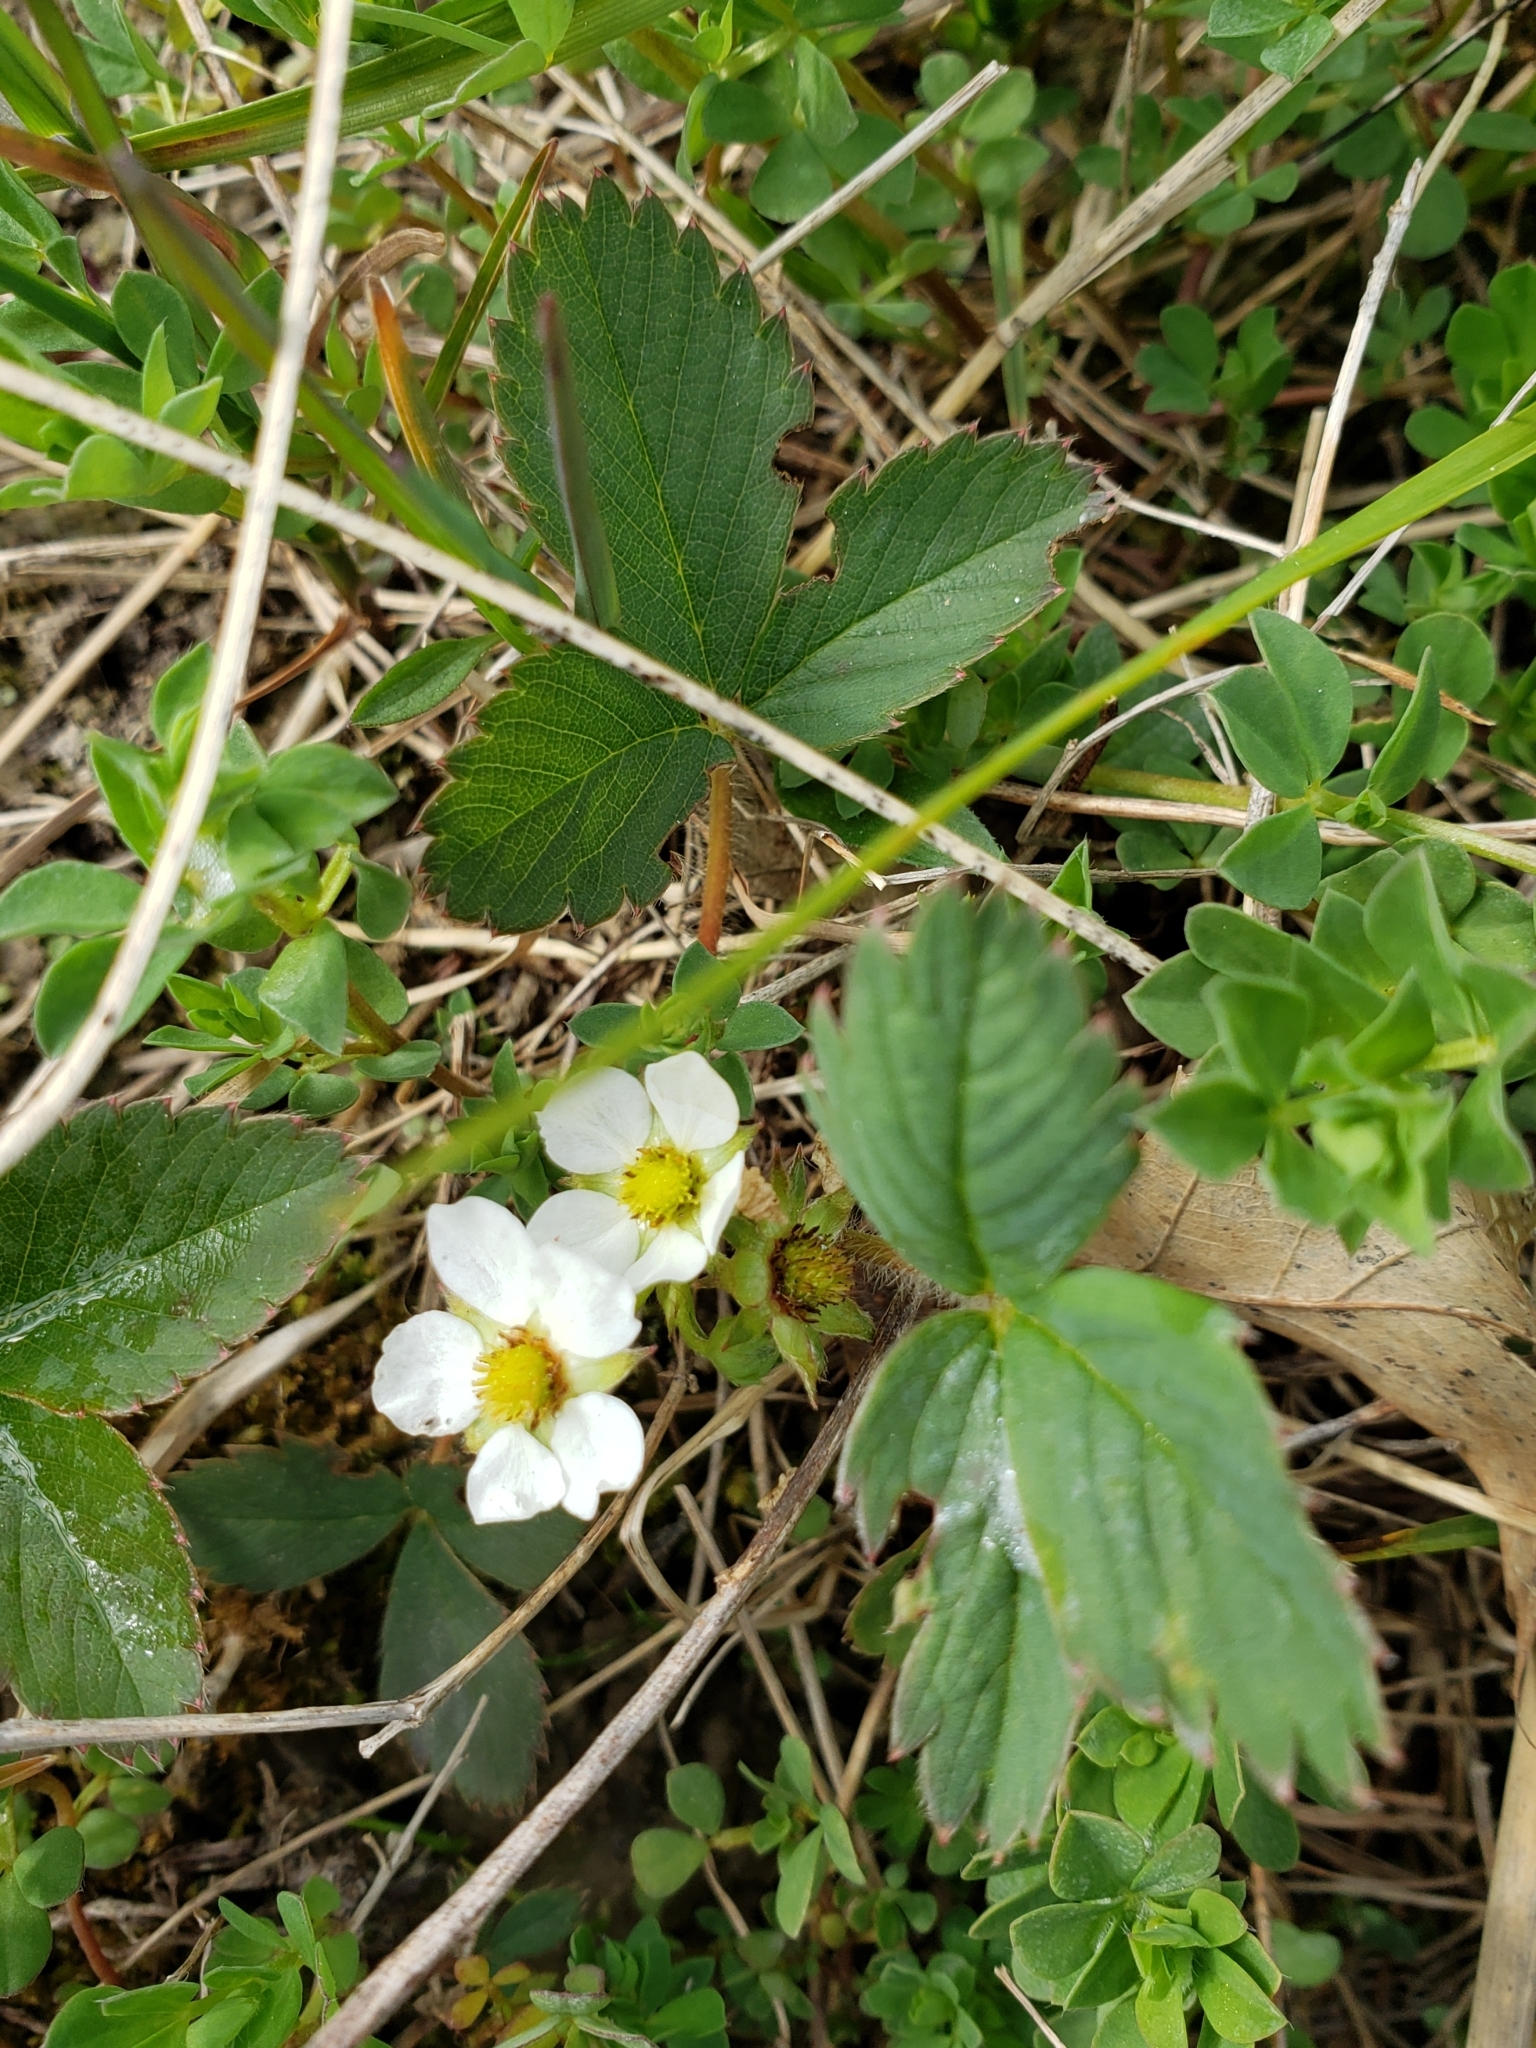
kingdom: Plantae
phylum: Tracheophyta
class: Magnoliopsida
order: Rosales
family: Rosaceae
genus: Fragaria
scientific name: Fragaria virginiana
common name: Thickleaved wild strawberry
